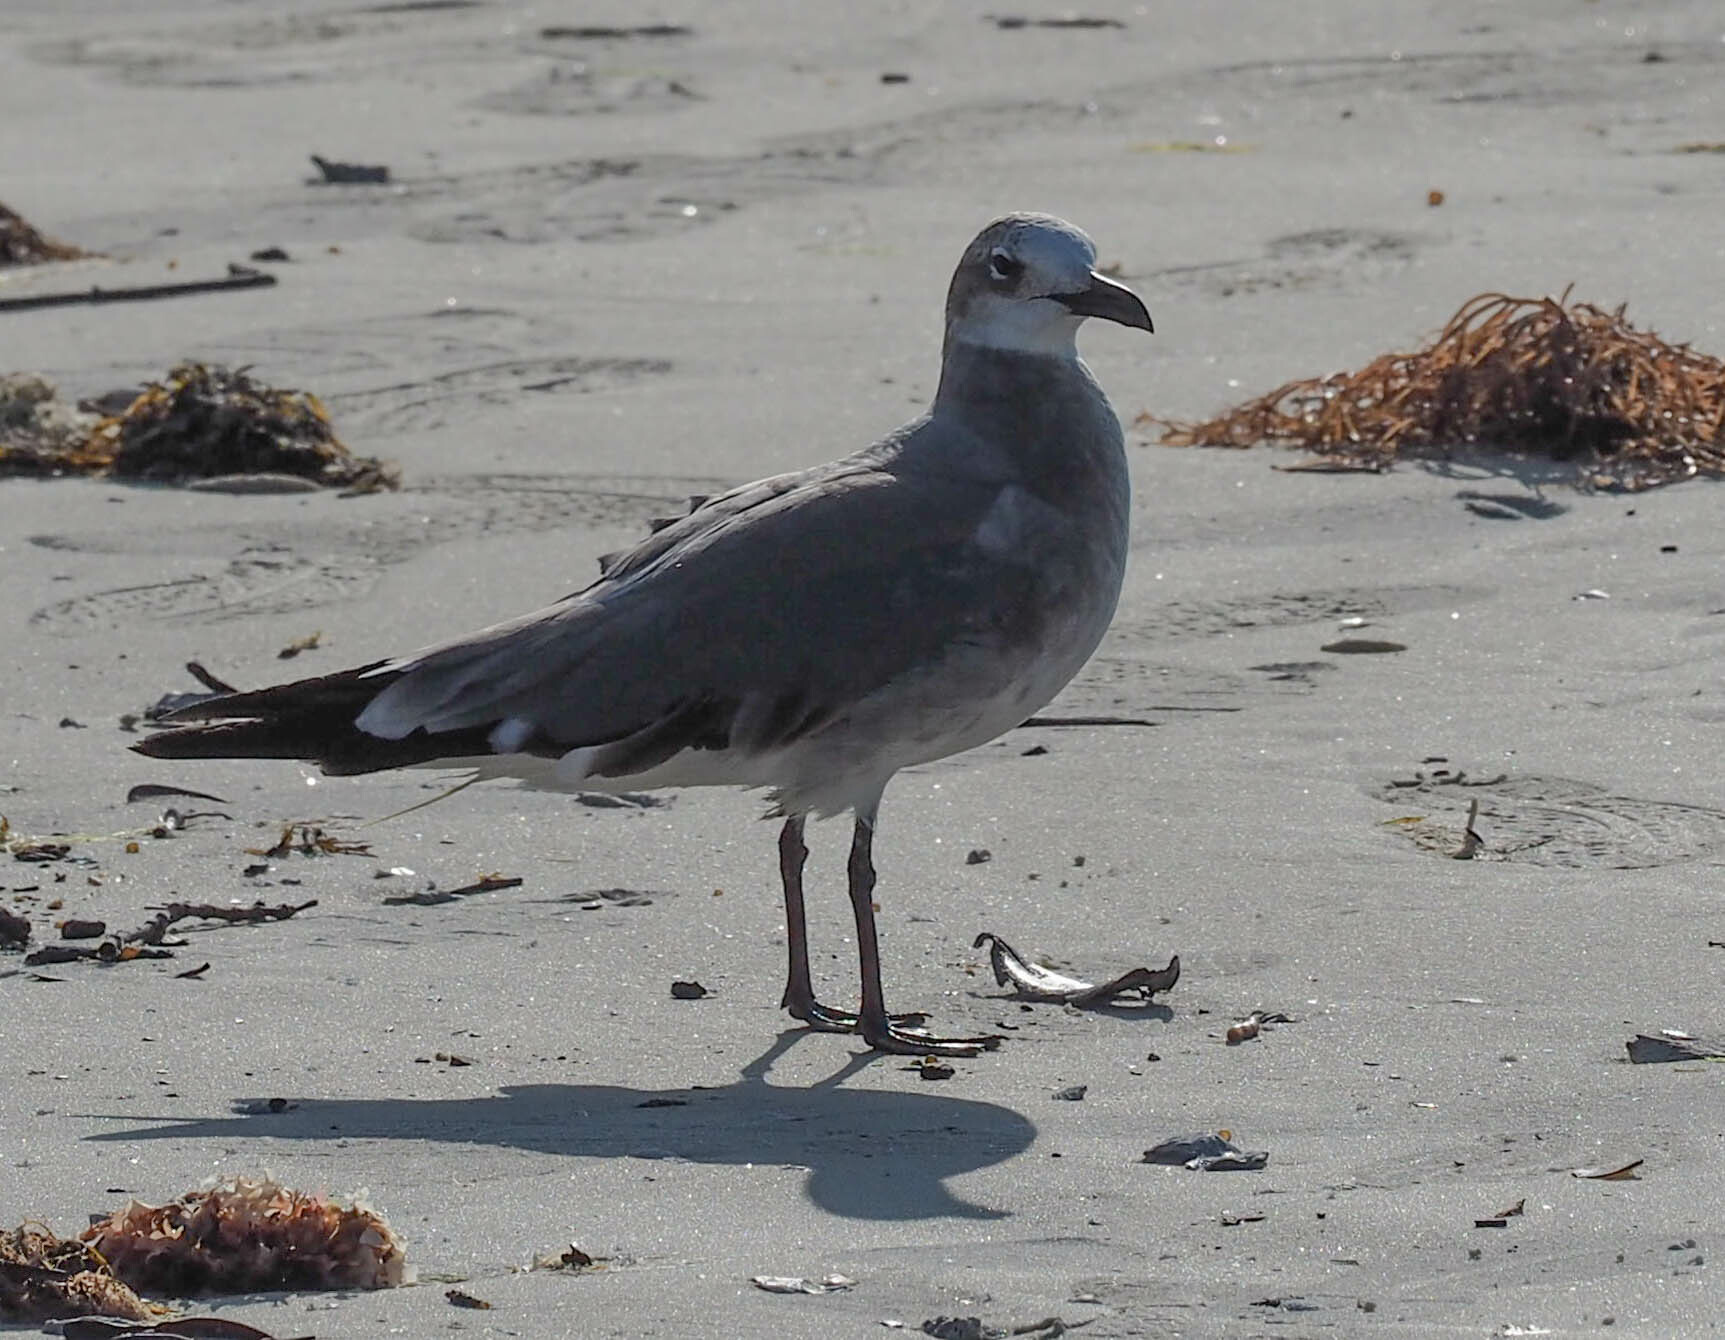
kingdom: Animalia
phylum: Chordata
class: Aves
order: Charadriiformes
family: Laridae
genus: Leucophaeus
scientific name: Leucophaeus atricilla
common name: Laughing gull
